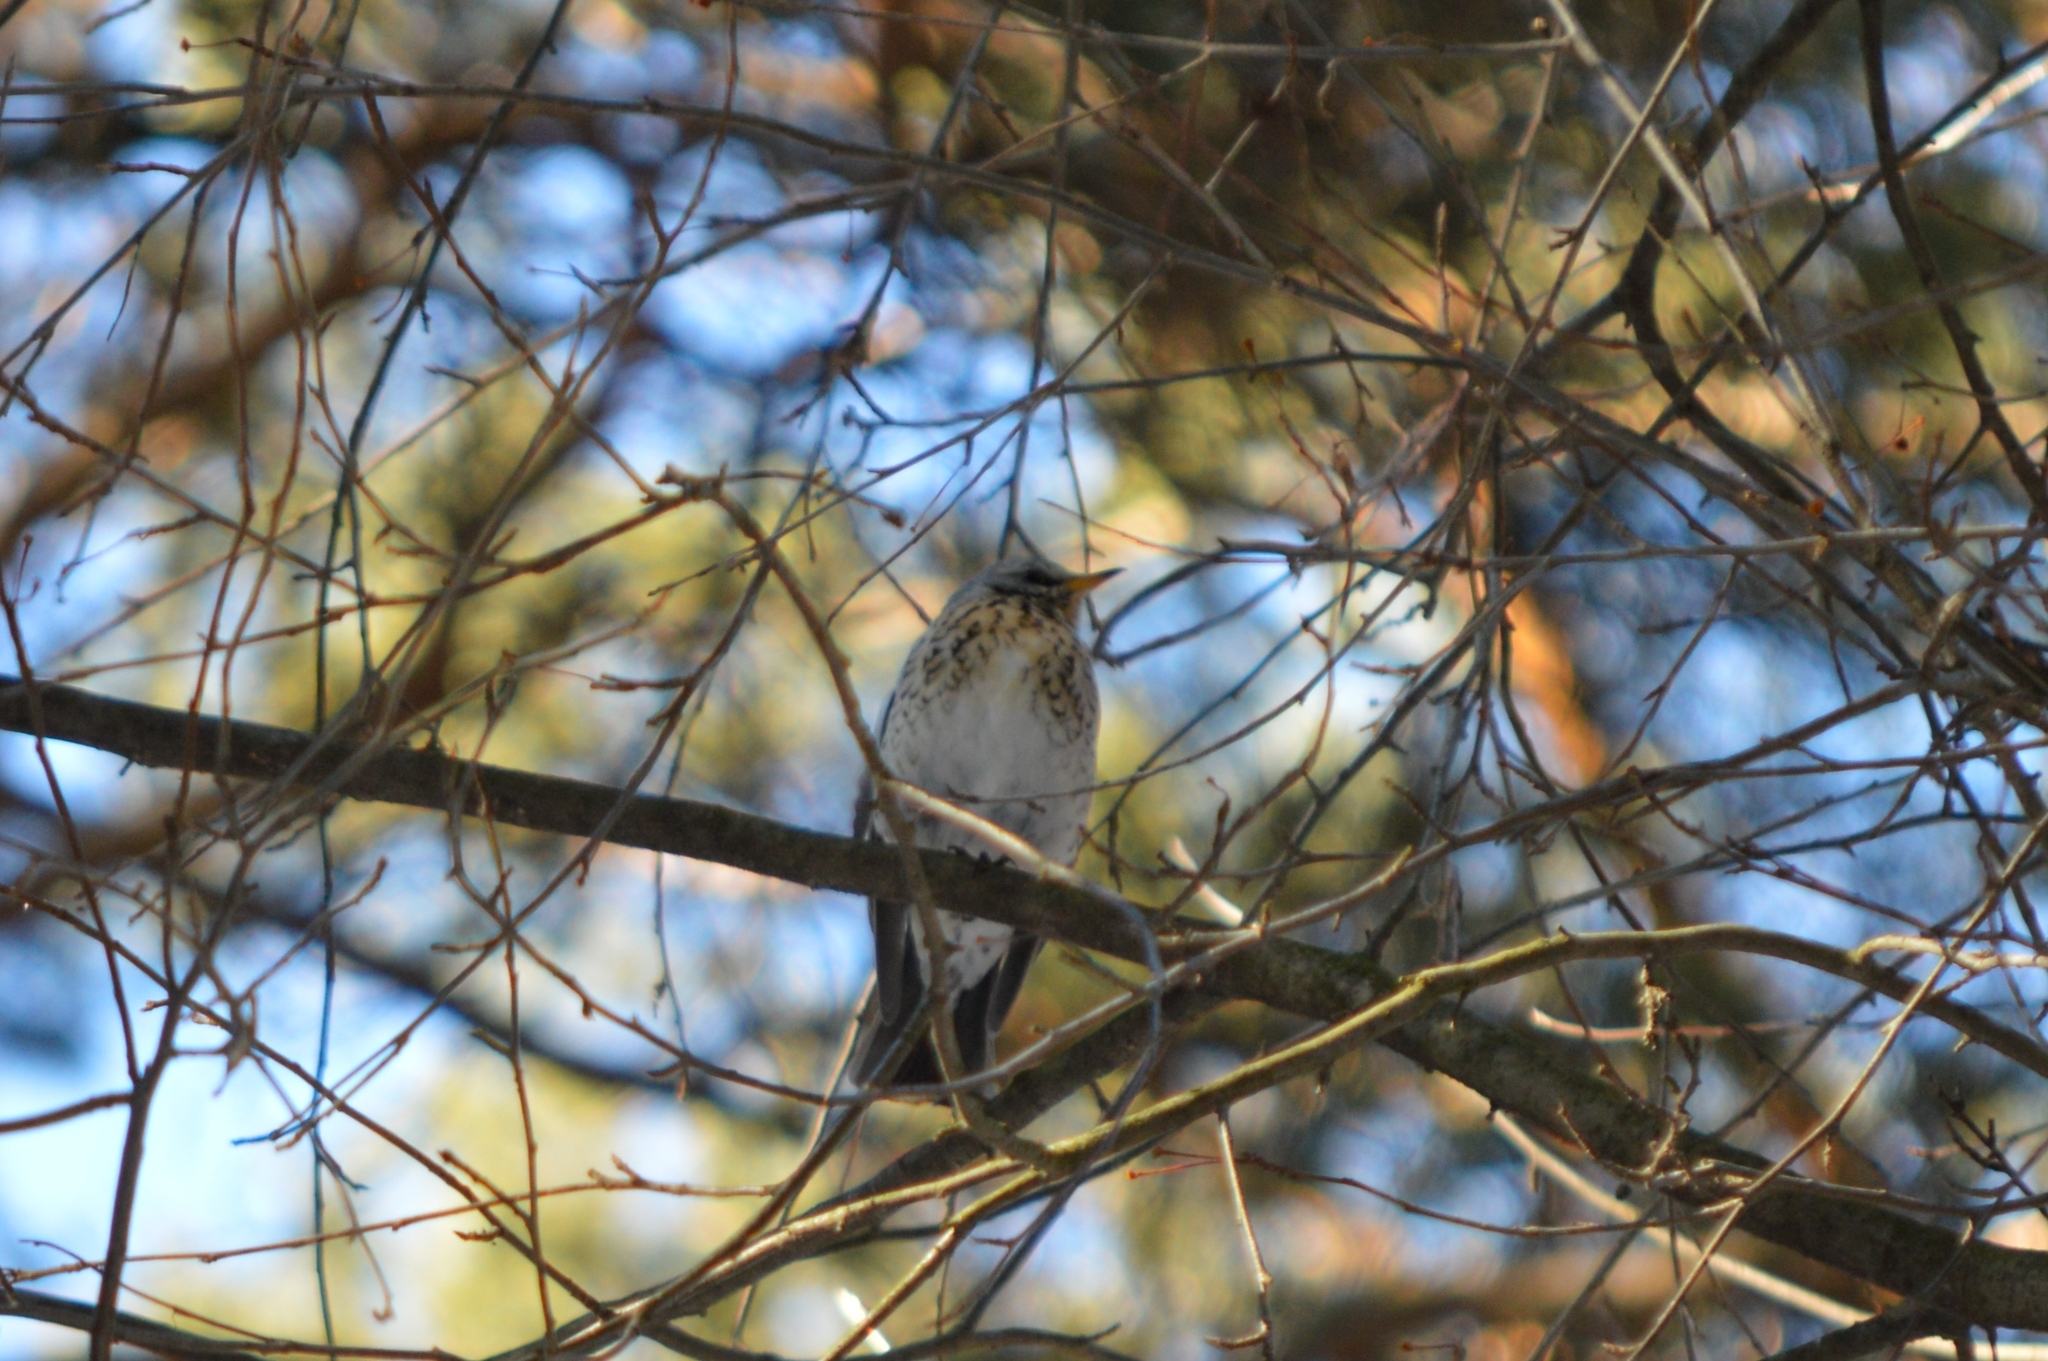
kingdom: Animalia
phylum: Chordata
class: Aves
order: Passeriformes
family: Turdidae
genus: Turdus
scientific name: Turdus pilaris
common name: Fieldfare
